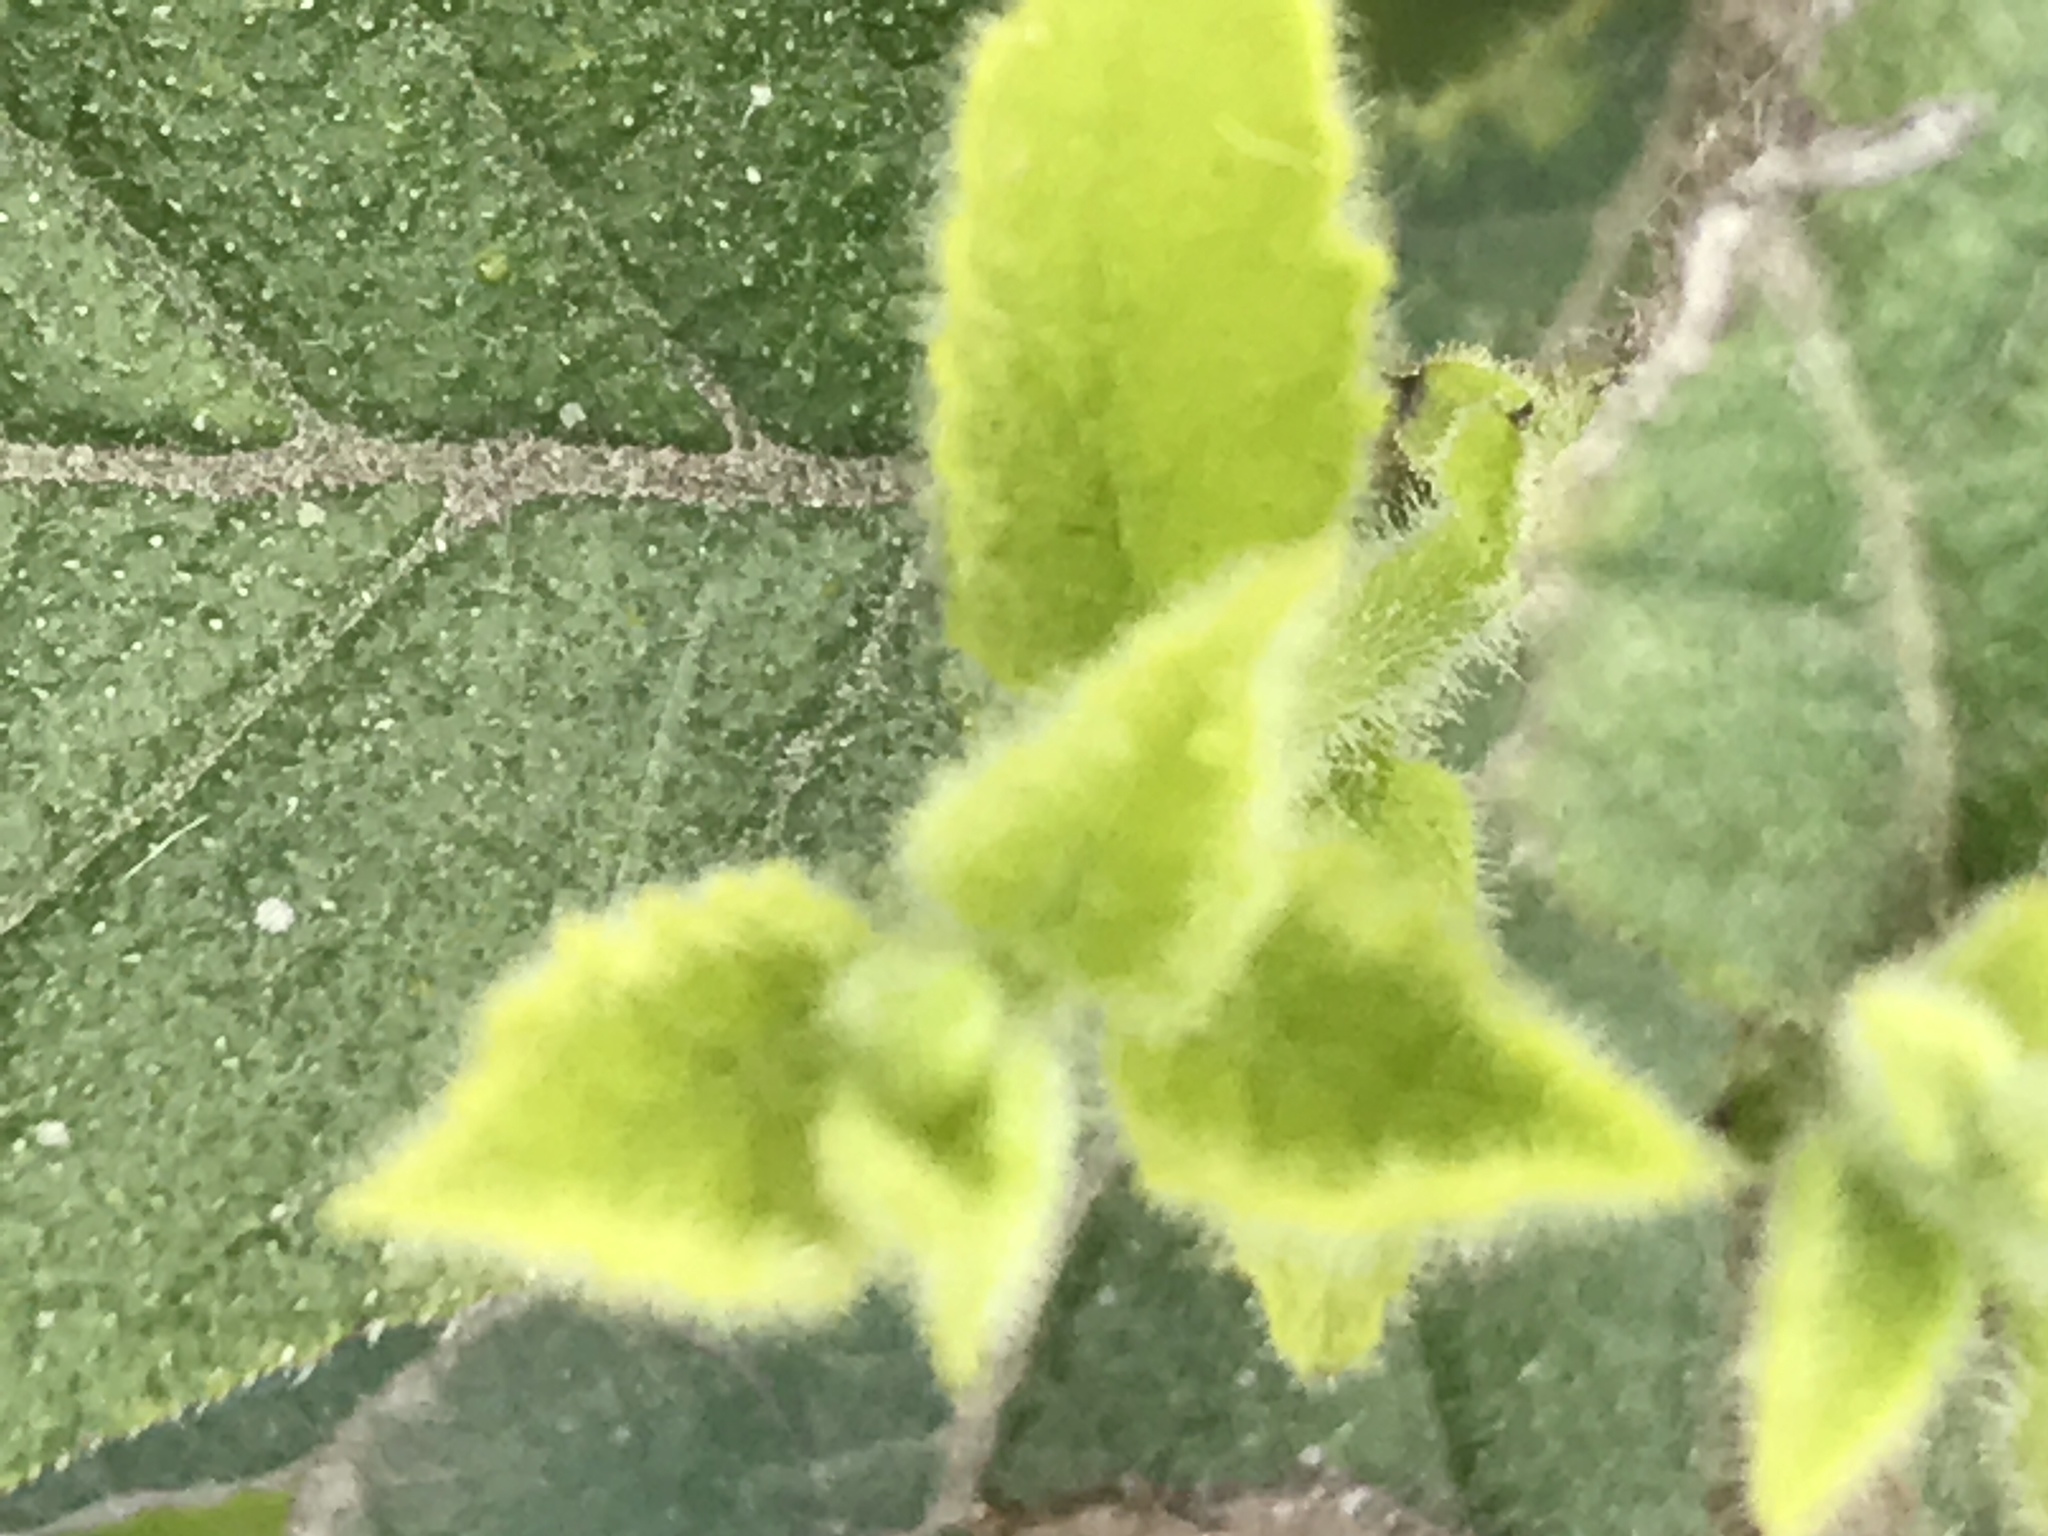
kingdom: Plantae
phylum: Tracheophyta
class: Magnoliopsida
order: Boraginales
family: Ehretiaceae
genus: Ehretia
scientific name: Ehretia anacua
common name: Sugarberry
